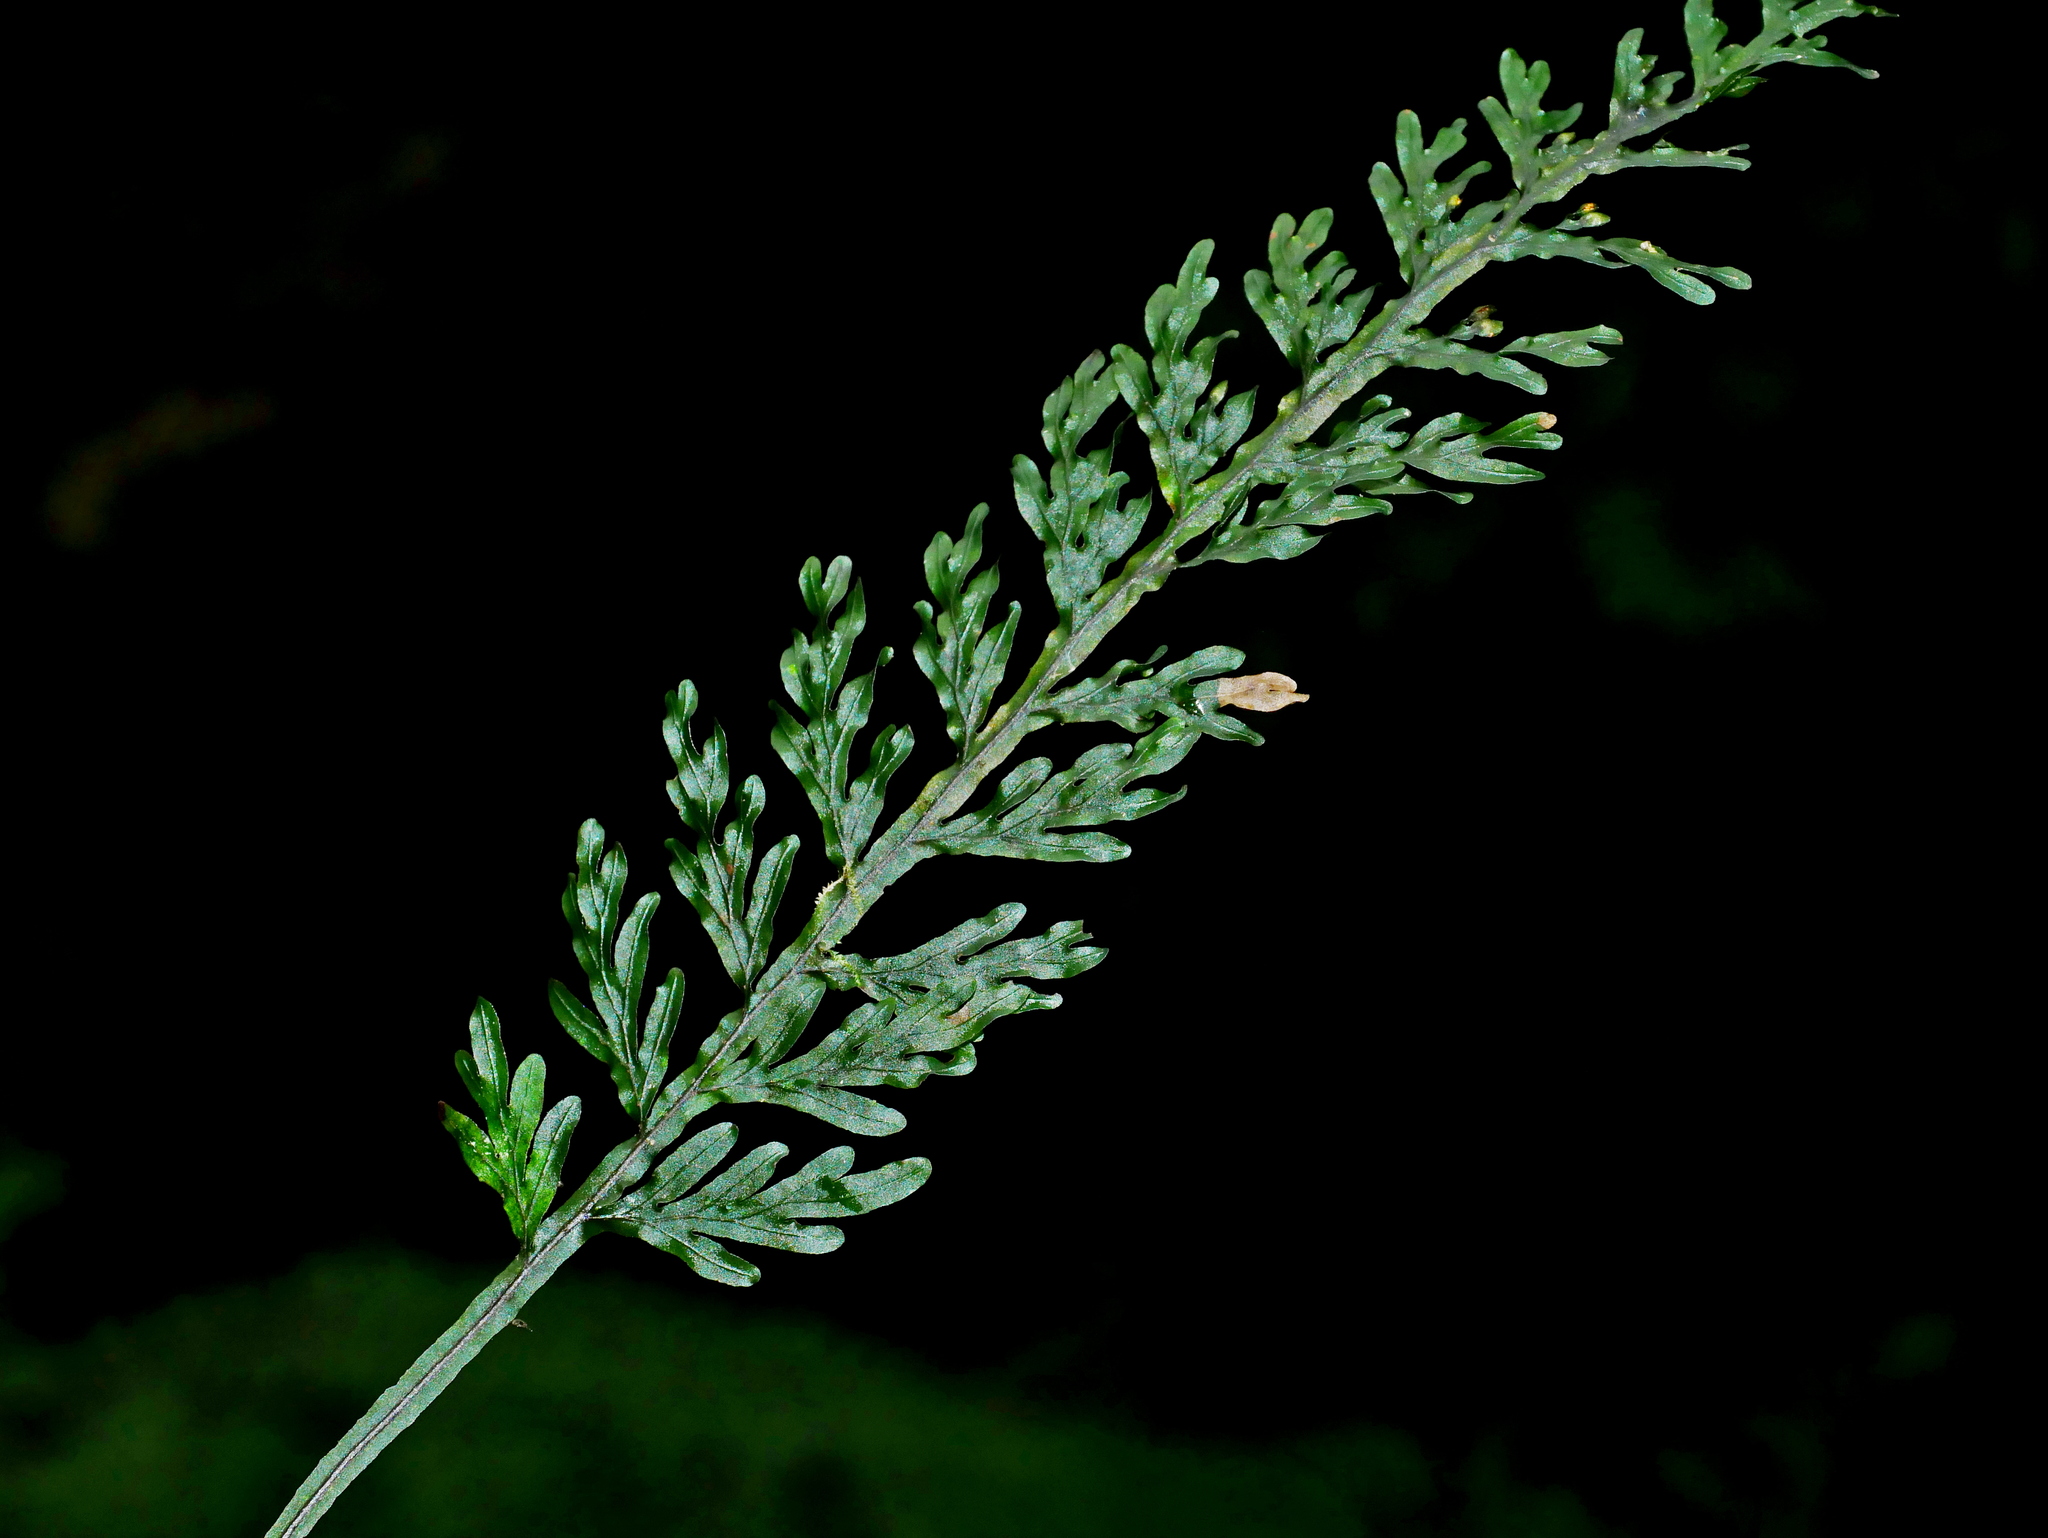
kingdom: Plantae
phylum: Tracheophyta
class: Polypodiopsida
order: Hymenophyllales
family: Hymenophyllaceae
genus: Hymenophyllum
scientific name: Hymenophyllum badium
